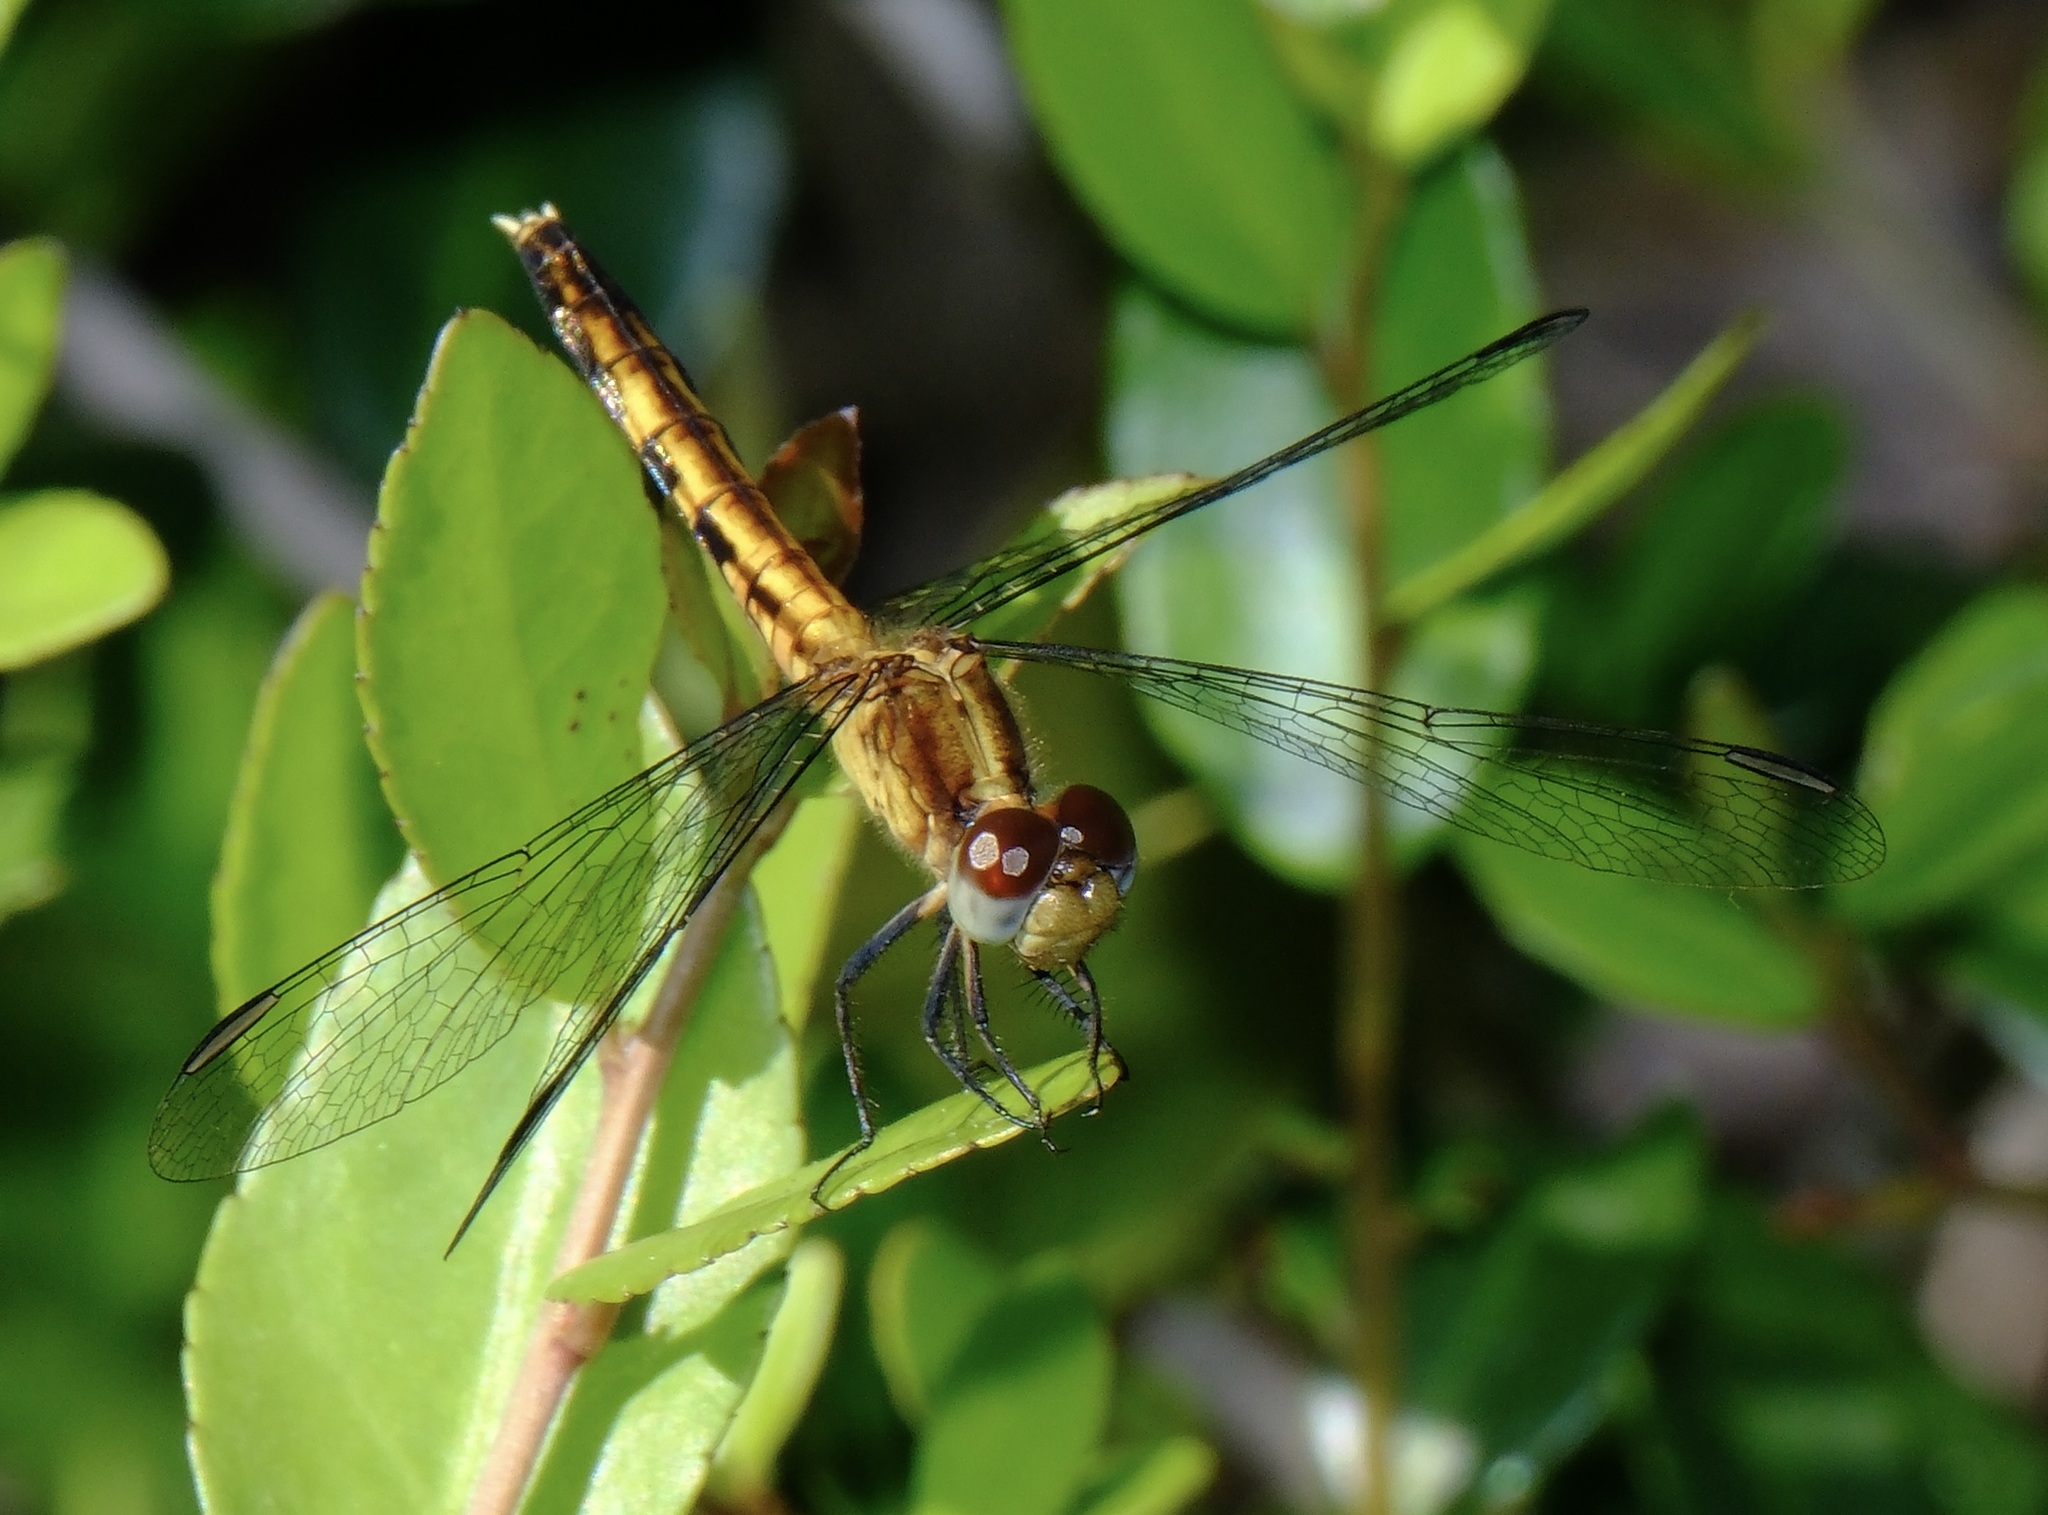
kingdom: Animalia
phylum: Arthropoda
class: Insecta
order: Odonata
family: Libellulidae
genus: Erythrodiplax
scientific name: Erythrodiplax minuscula
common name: Little blue dragonlet
